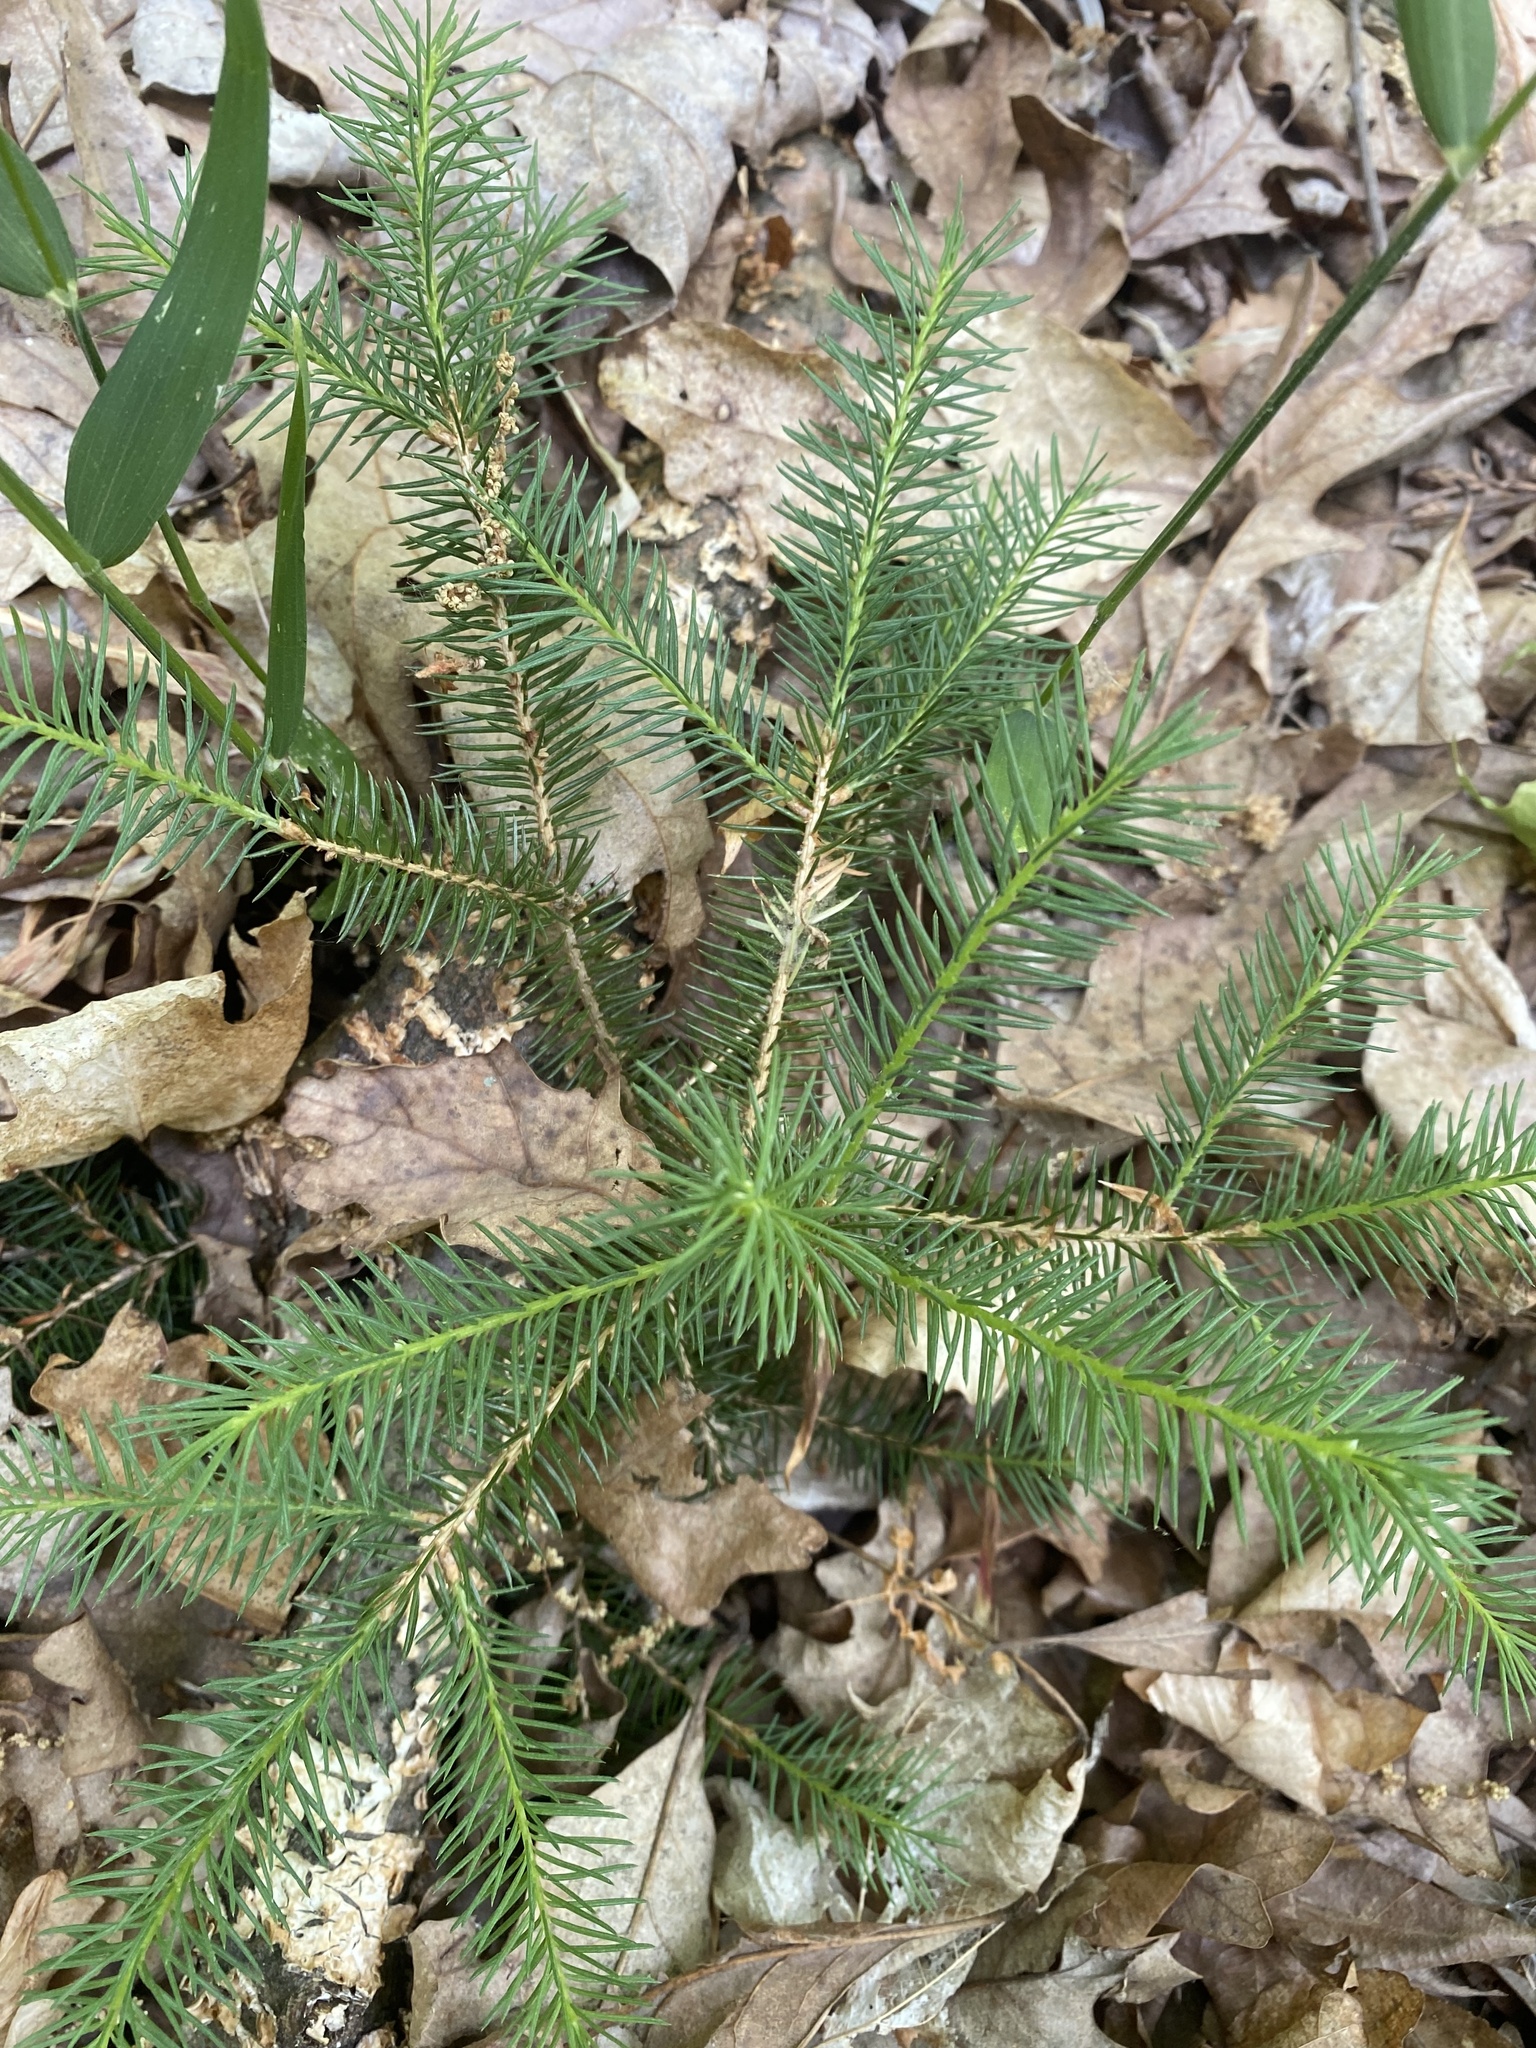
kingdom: Plantae
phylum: Tracheophyta
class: Pinopsida
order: Pinales
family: Pinaceae
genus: Picea
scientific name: Picea abies
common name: Norway spruce
